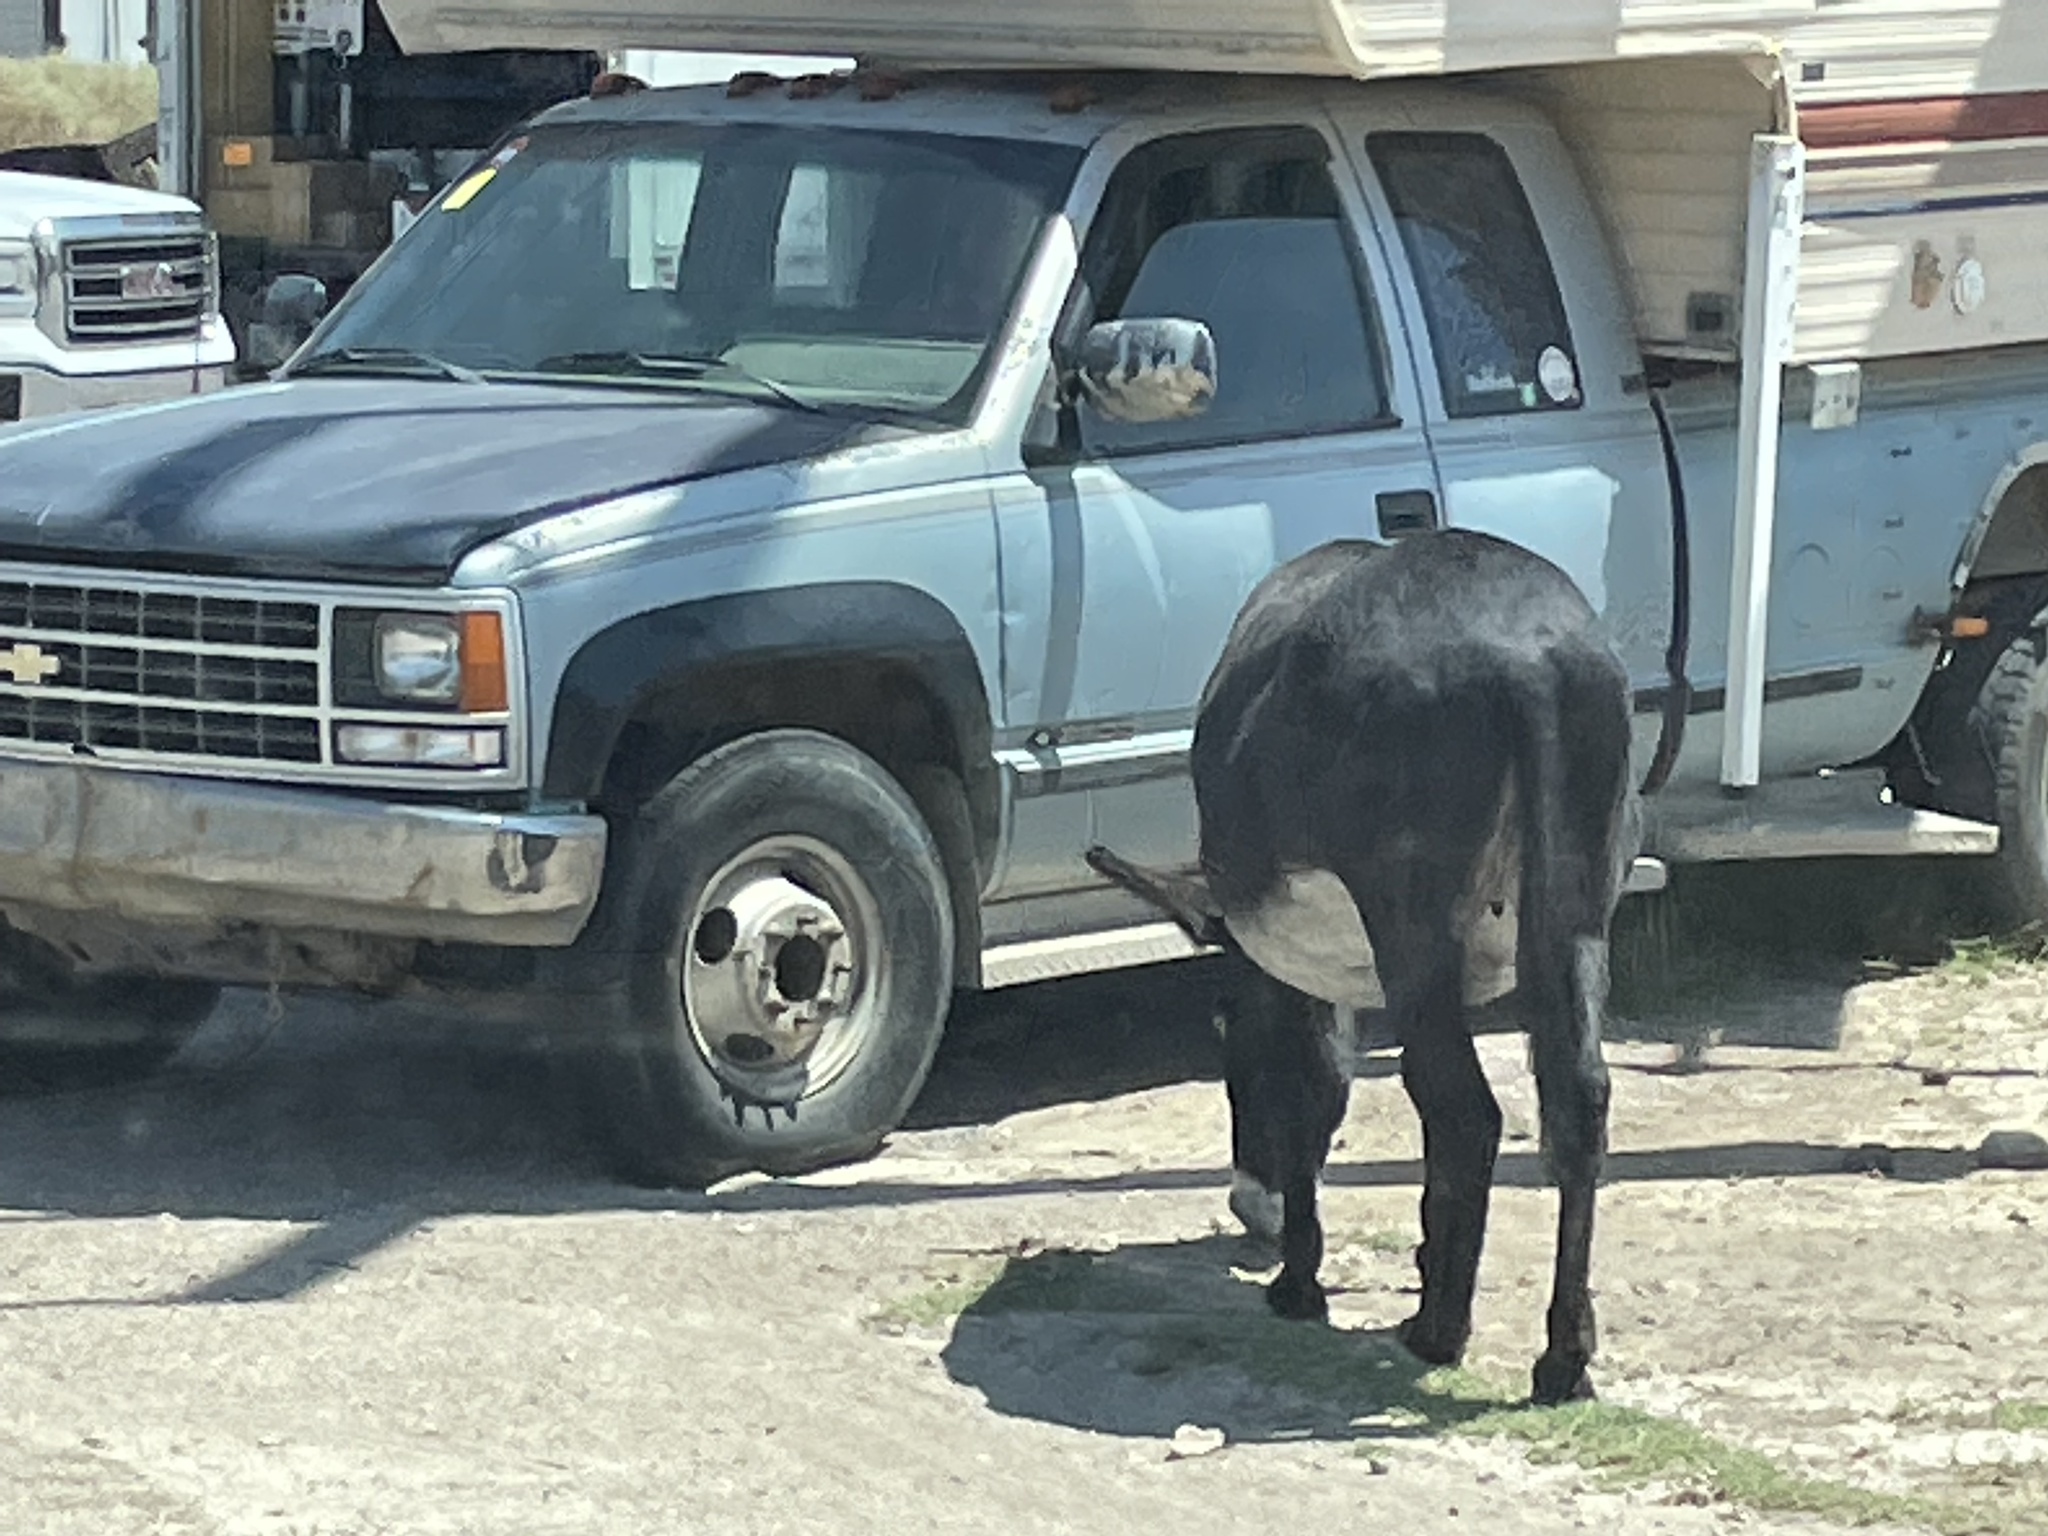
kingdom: Animalia
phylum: Chordata
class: Mammalia
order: Perissodactyla
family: Equidae
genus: Equus
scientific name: Equus asinus
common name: Ass
